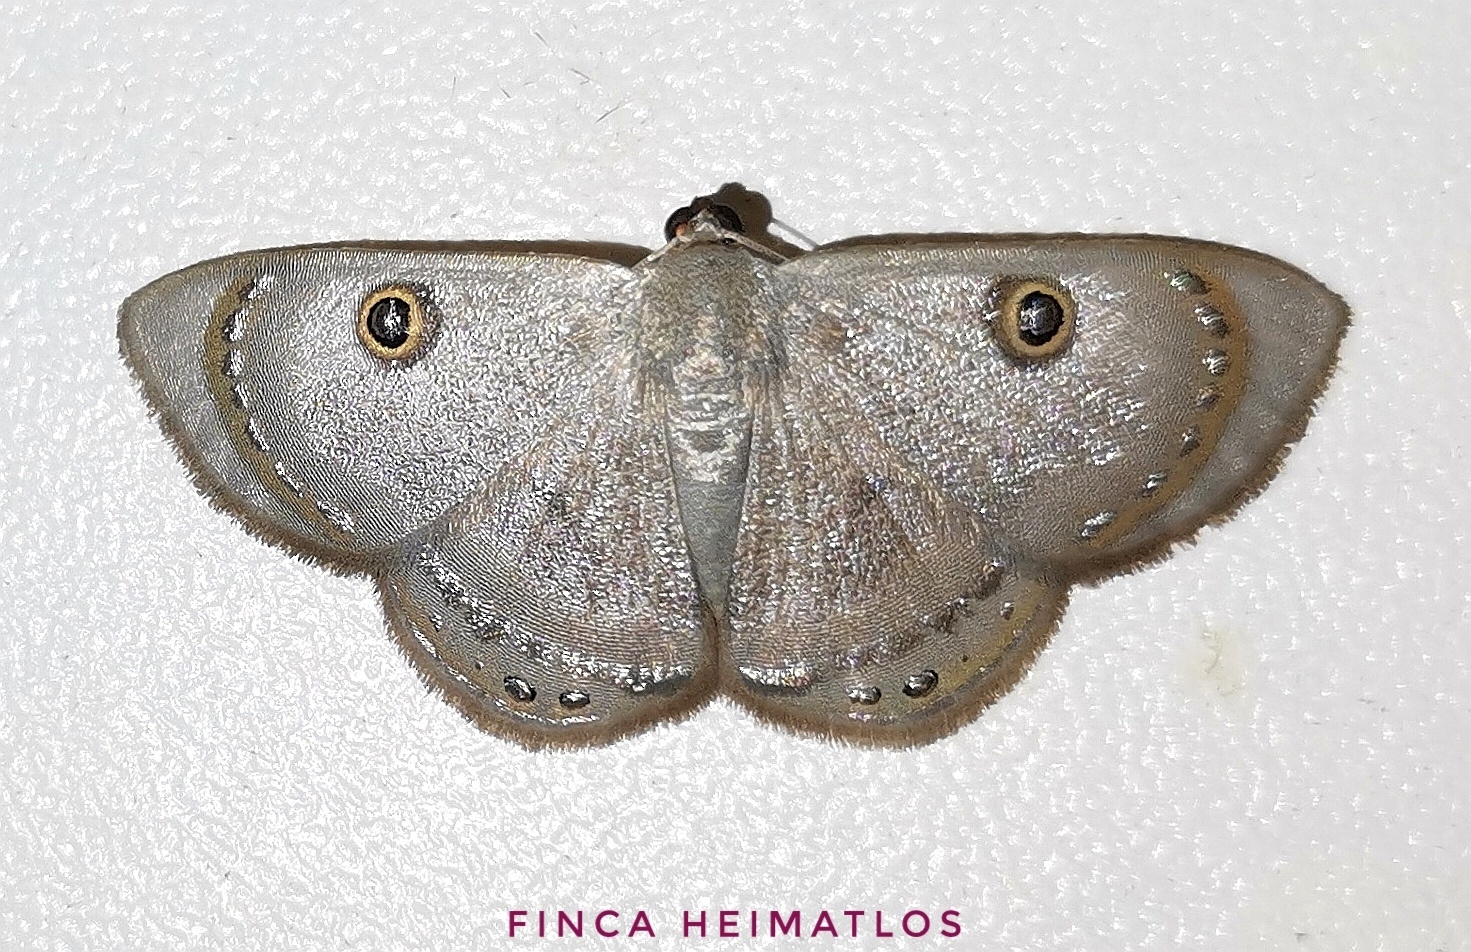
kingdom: Animalia
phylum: Arthropoda
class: Insecta
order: Lepidoptera
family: Geometridae
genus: Argyrotome
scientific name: Argyrotome melae
